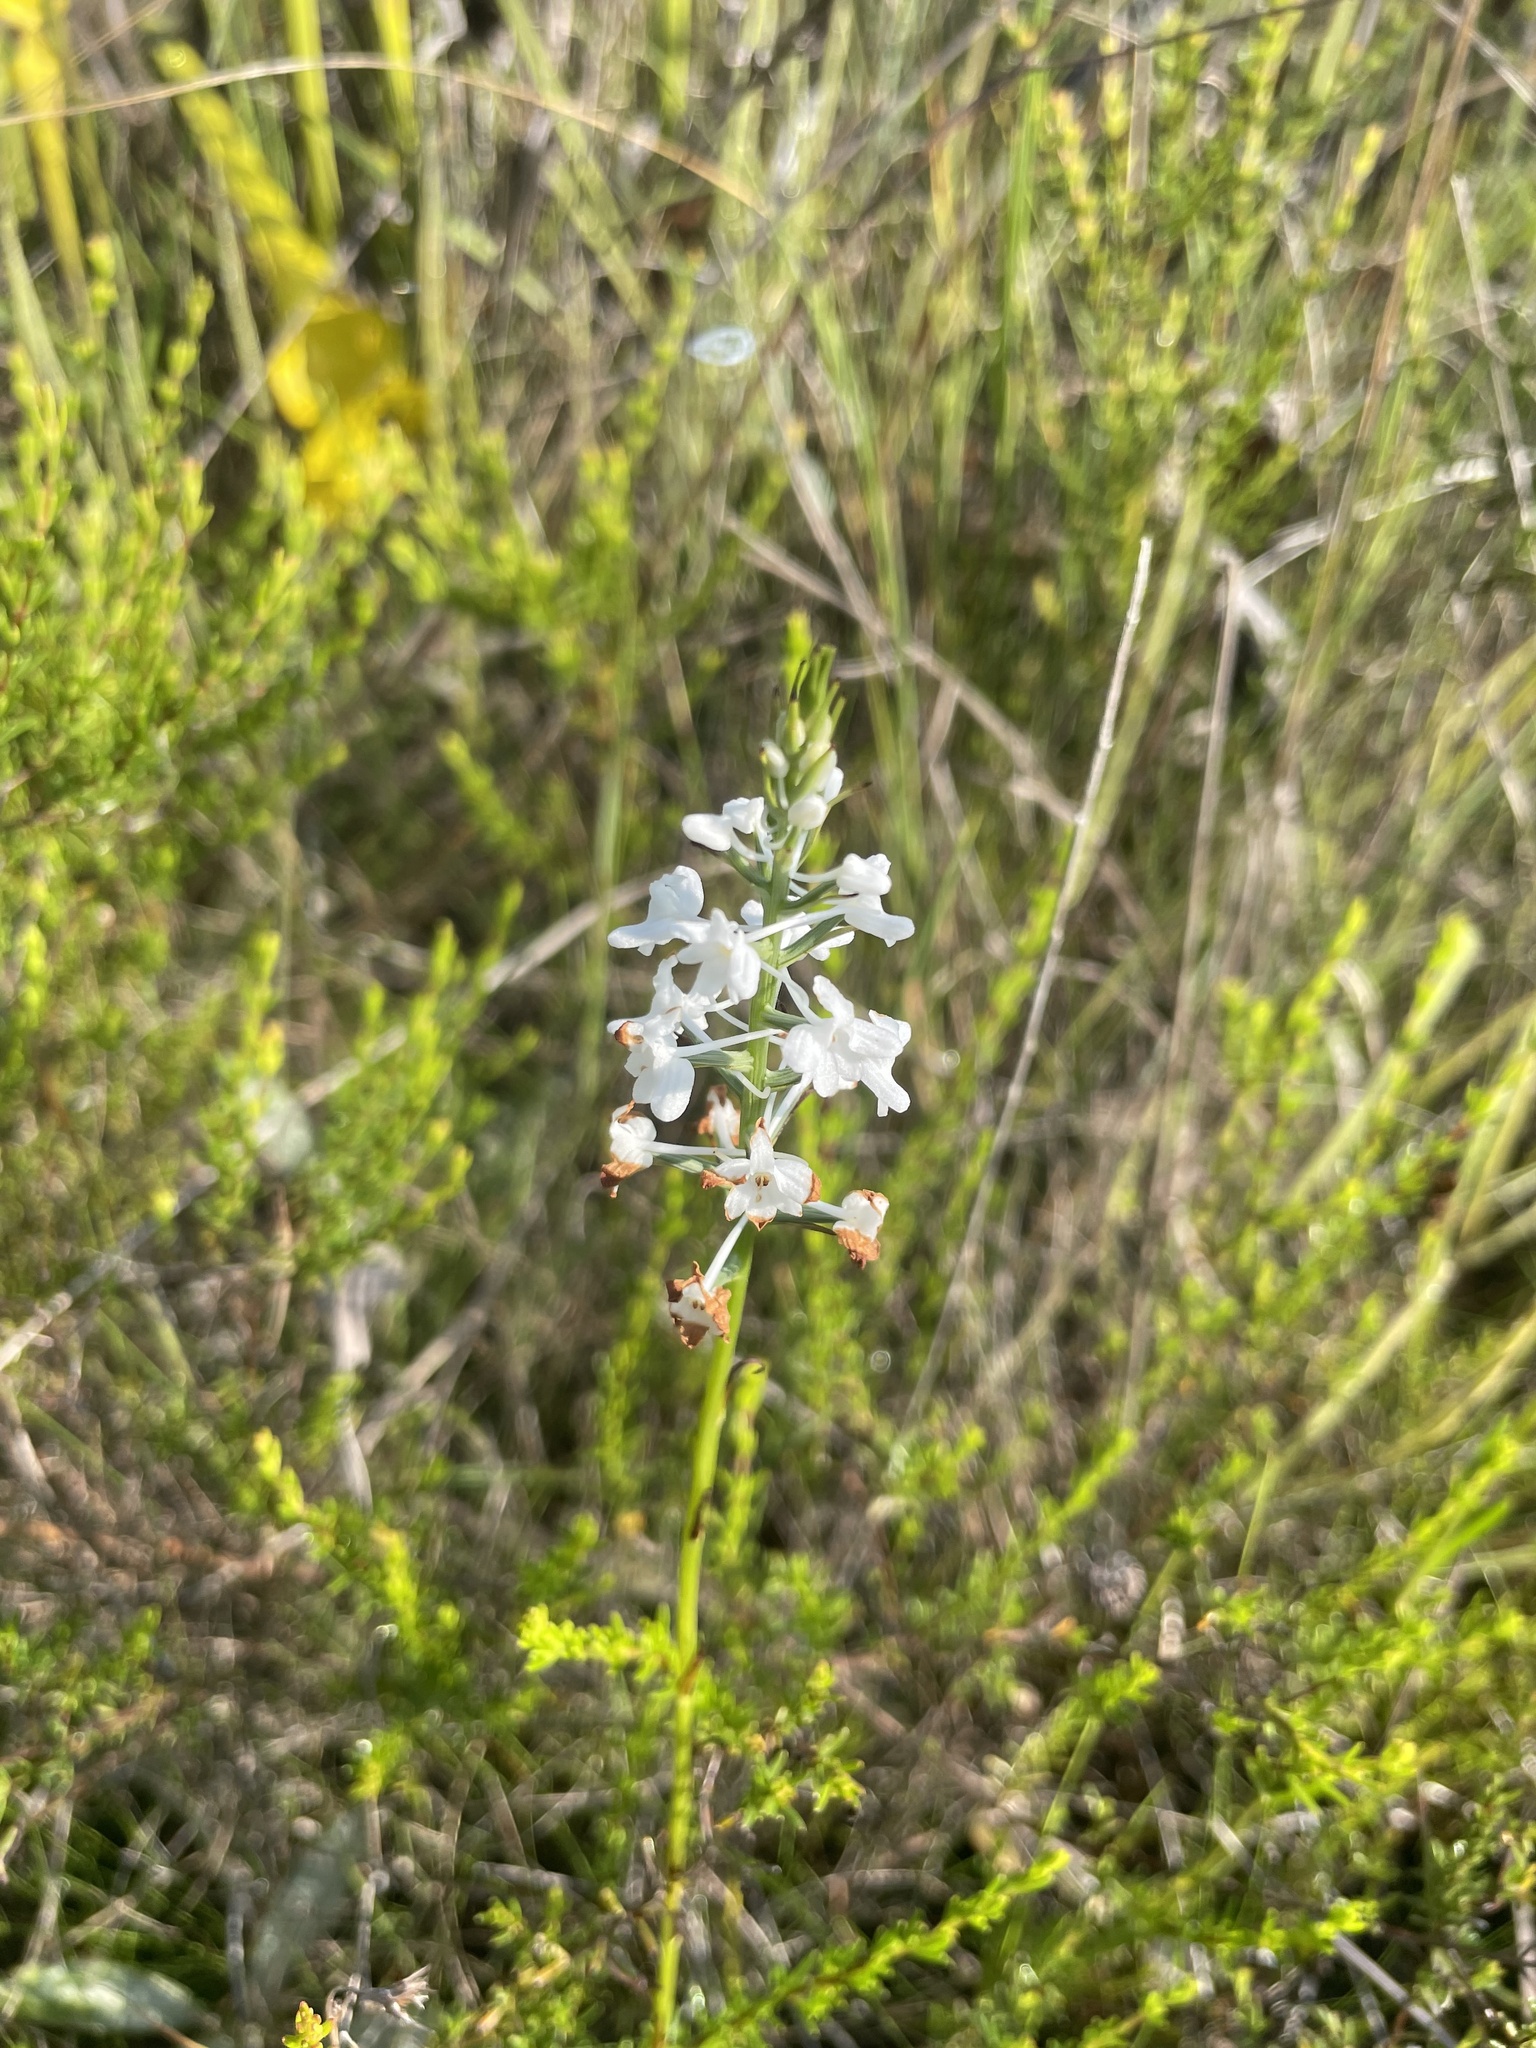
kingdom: Plantae
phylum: Tracheophyta
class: Liliopsida
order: Asparagales
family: Orchidaceae
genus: Platanthera
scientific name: Platanthera nivea
